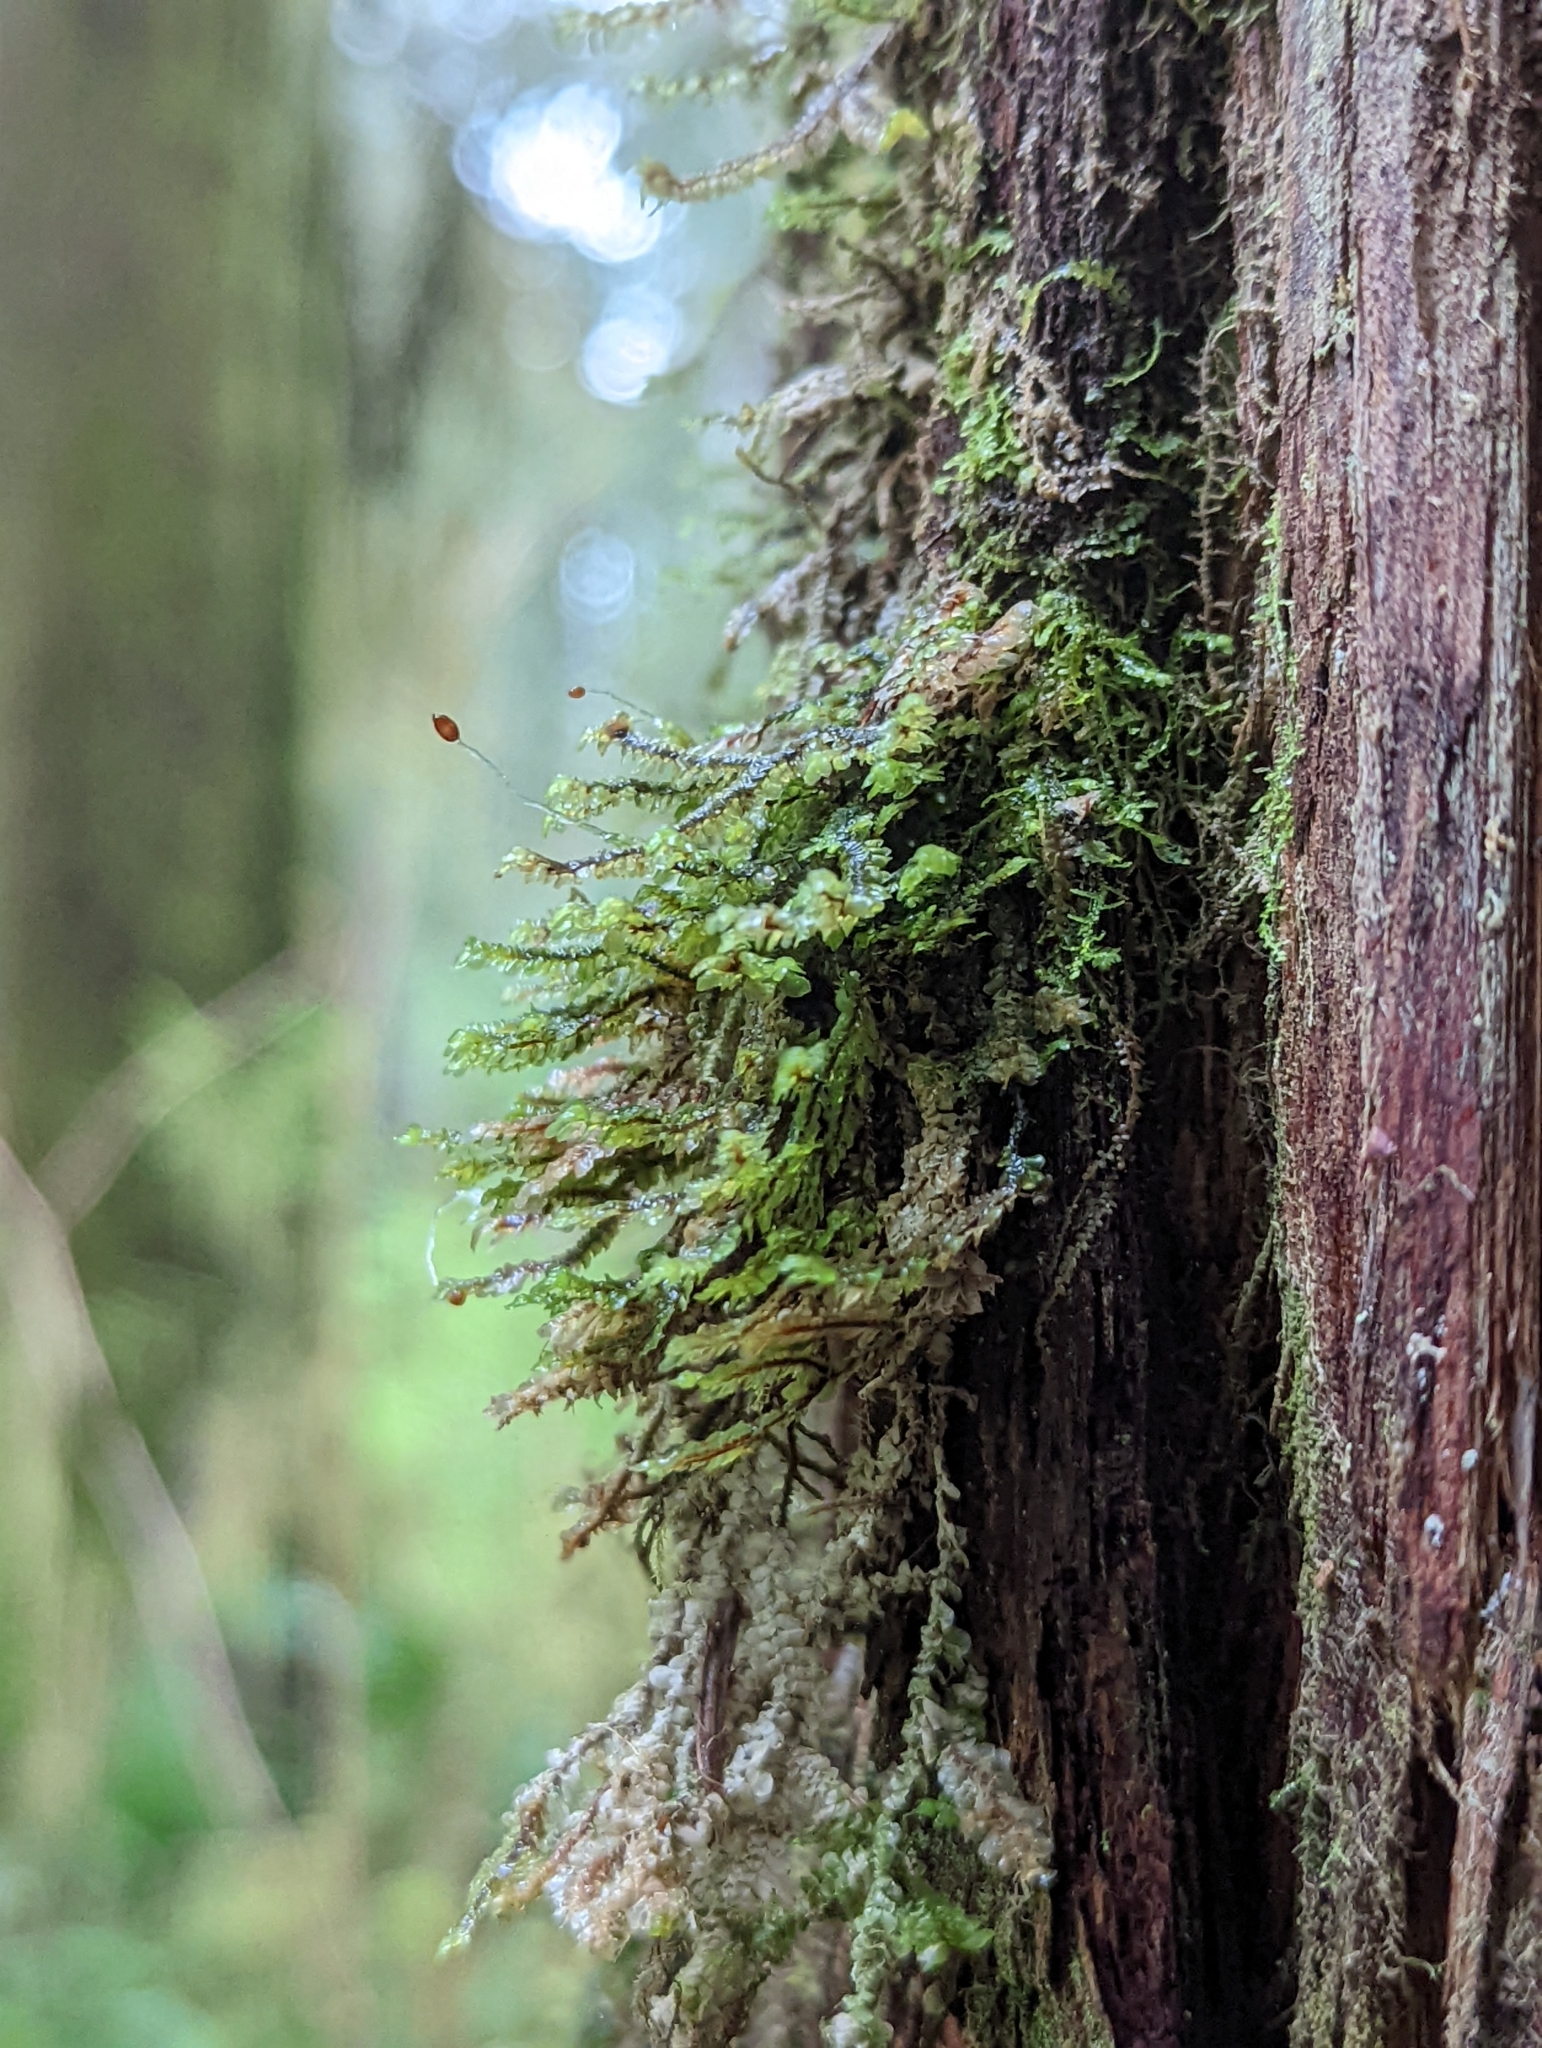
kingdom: Plantae
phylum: Marchantiophyta
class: Jungermanniopsida
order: Jungermanniales
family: Scapaniaceae
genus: Scapania
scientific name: Scapania bolanderi
